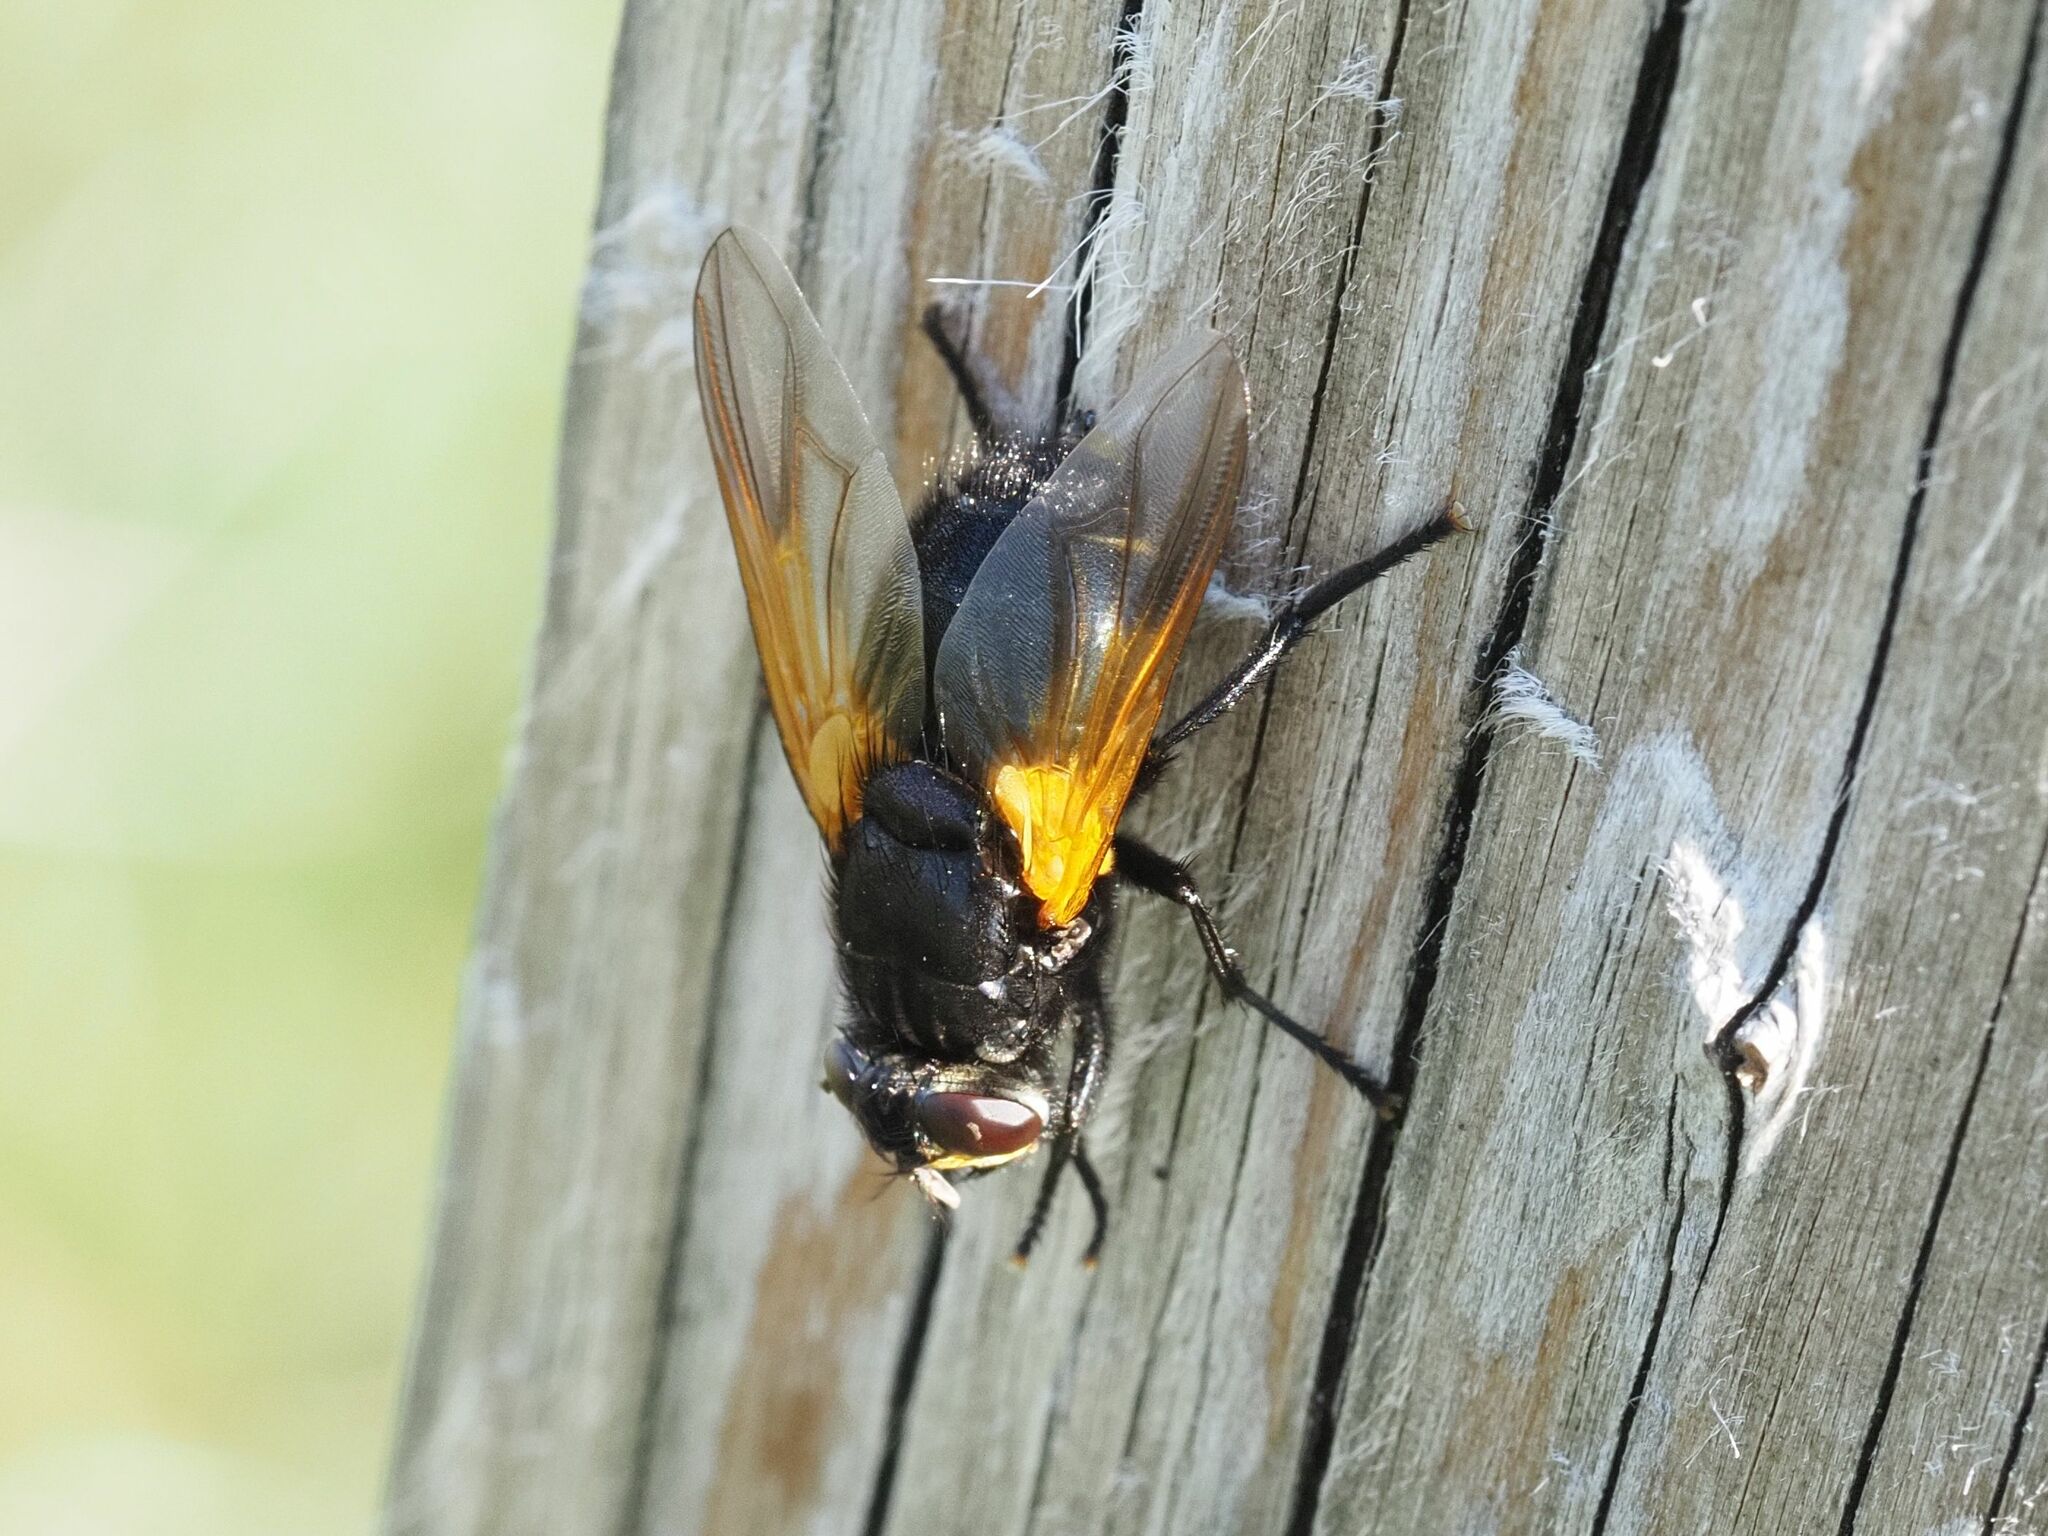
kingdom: Animalia
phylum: Arthropoda
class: Insecta
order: Diptera
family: Muscidae
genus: Mesembrina
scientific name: Mesembrina meridiana
